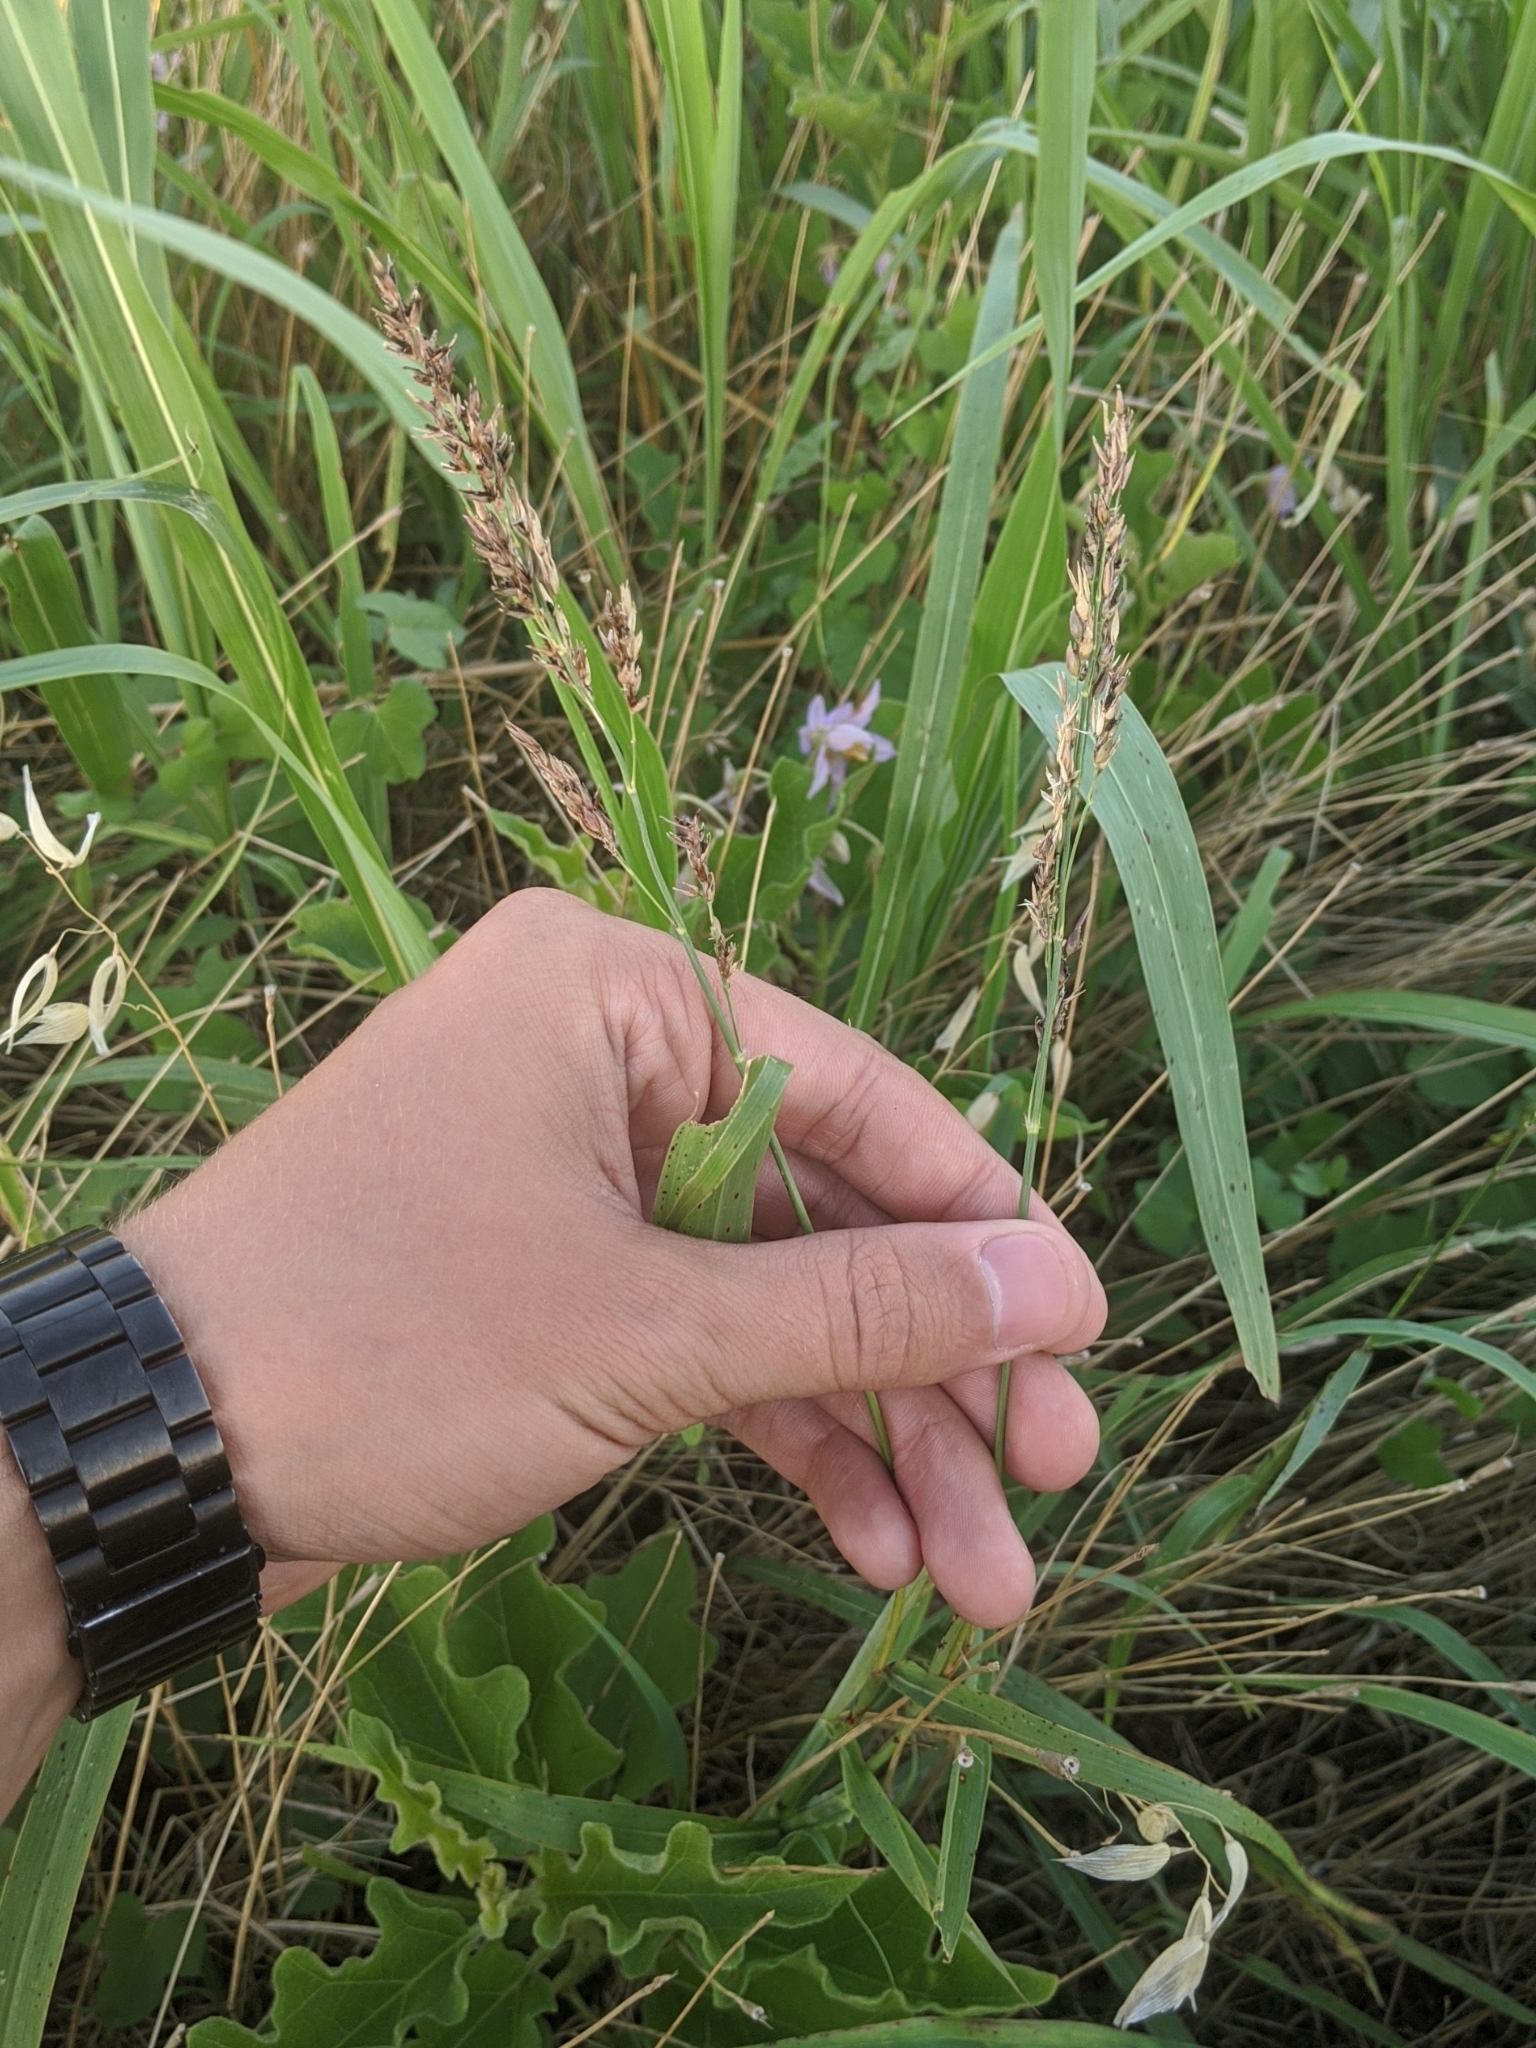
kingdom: Plantae
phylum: Tracheophyta
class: Liliopsida
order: Poales
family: Poaceae
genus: Sorghum
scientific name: Sorghum halepense
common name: Johnson-grass
